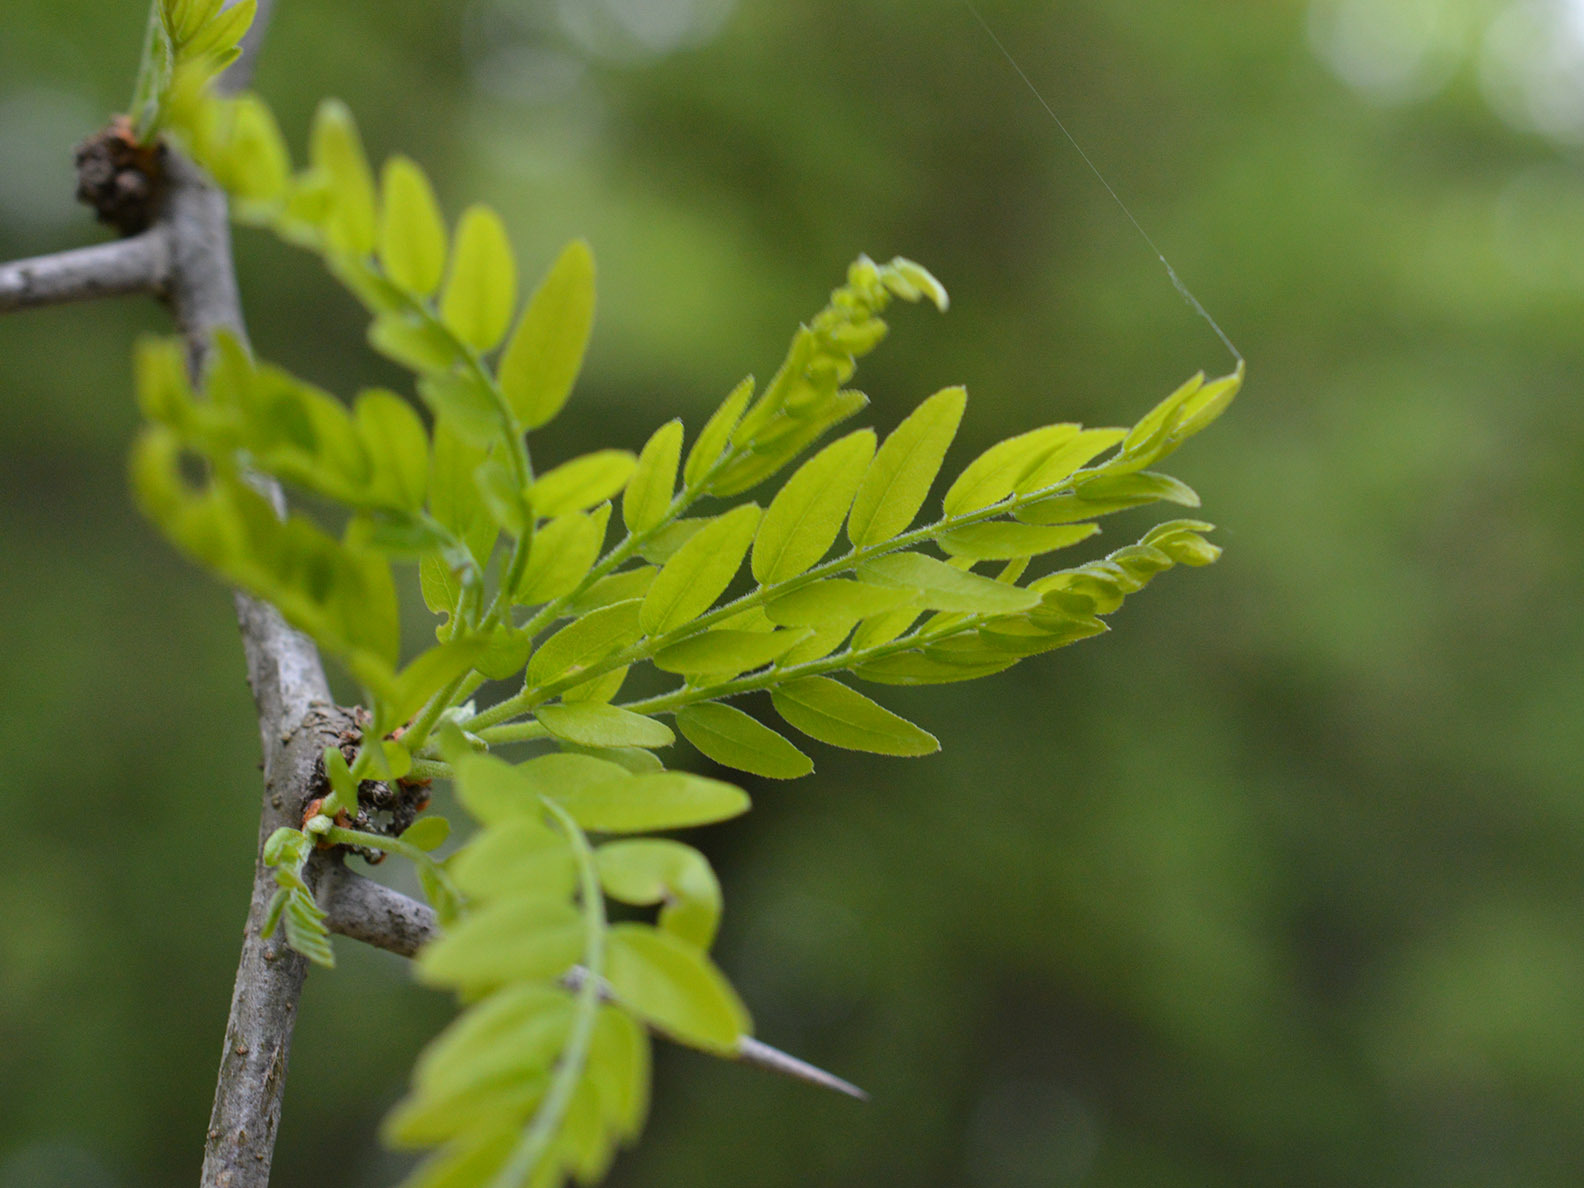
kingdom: Plantae
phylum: Tracheophyta
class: Magnoliopsida
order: Fabales
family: Fabaceae
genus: Gleditsia
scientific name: Gleditsia triacanthos
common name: Common honeylocust
